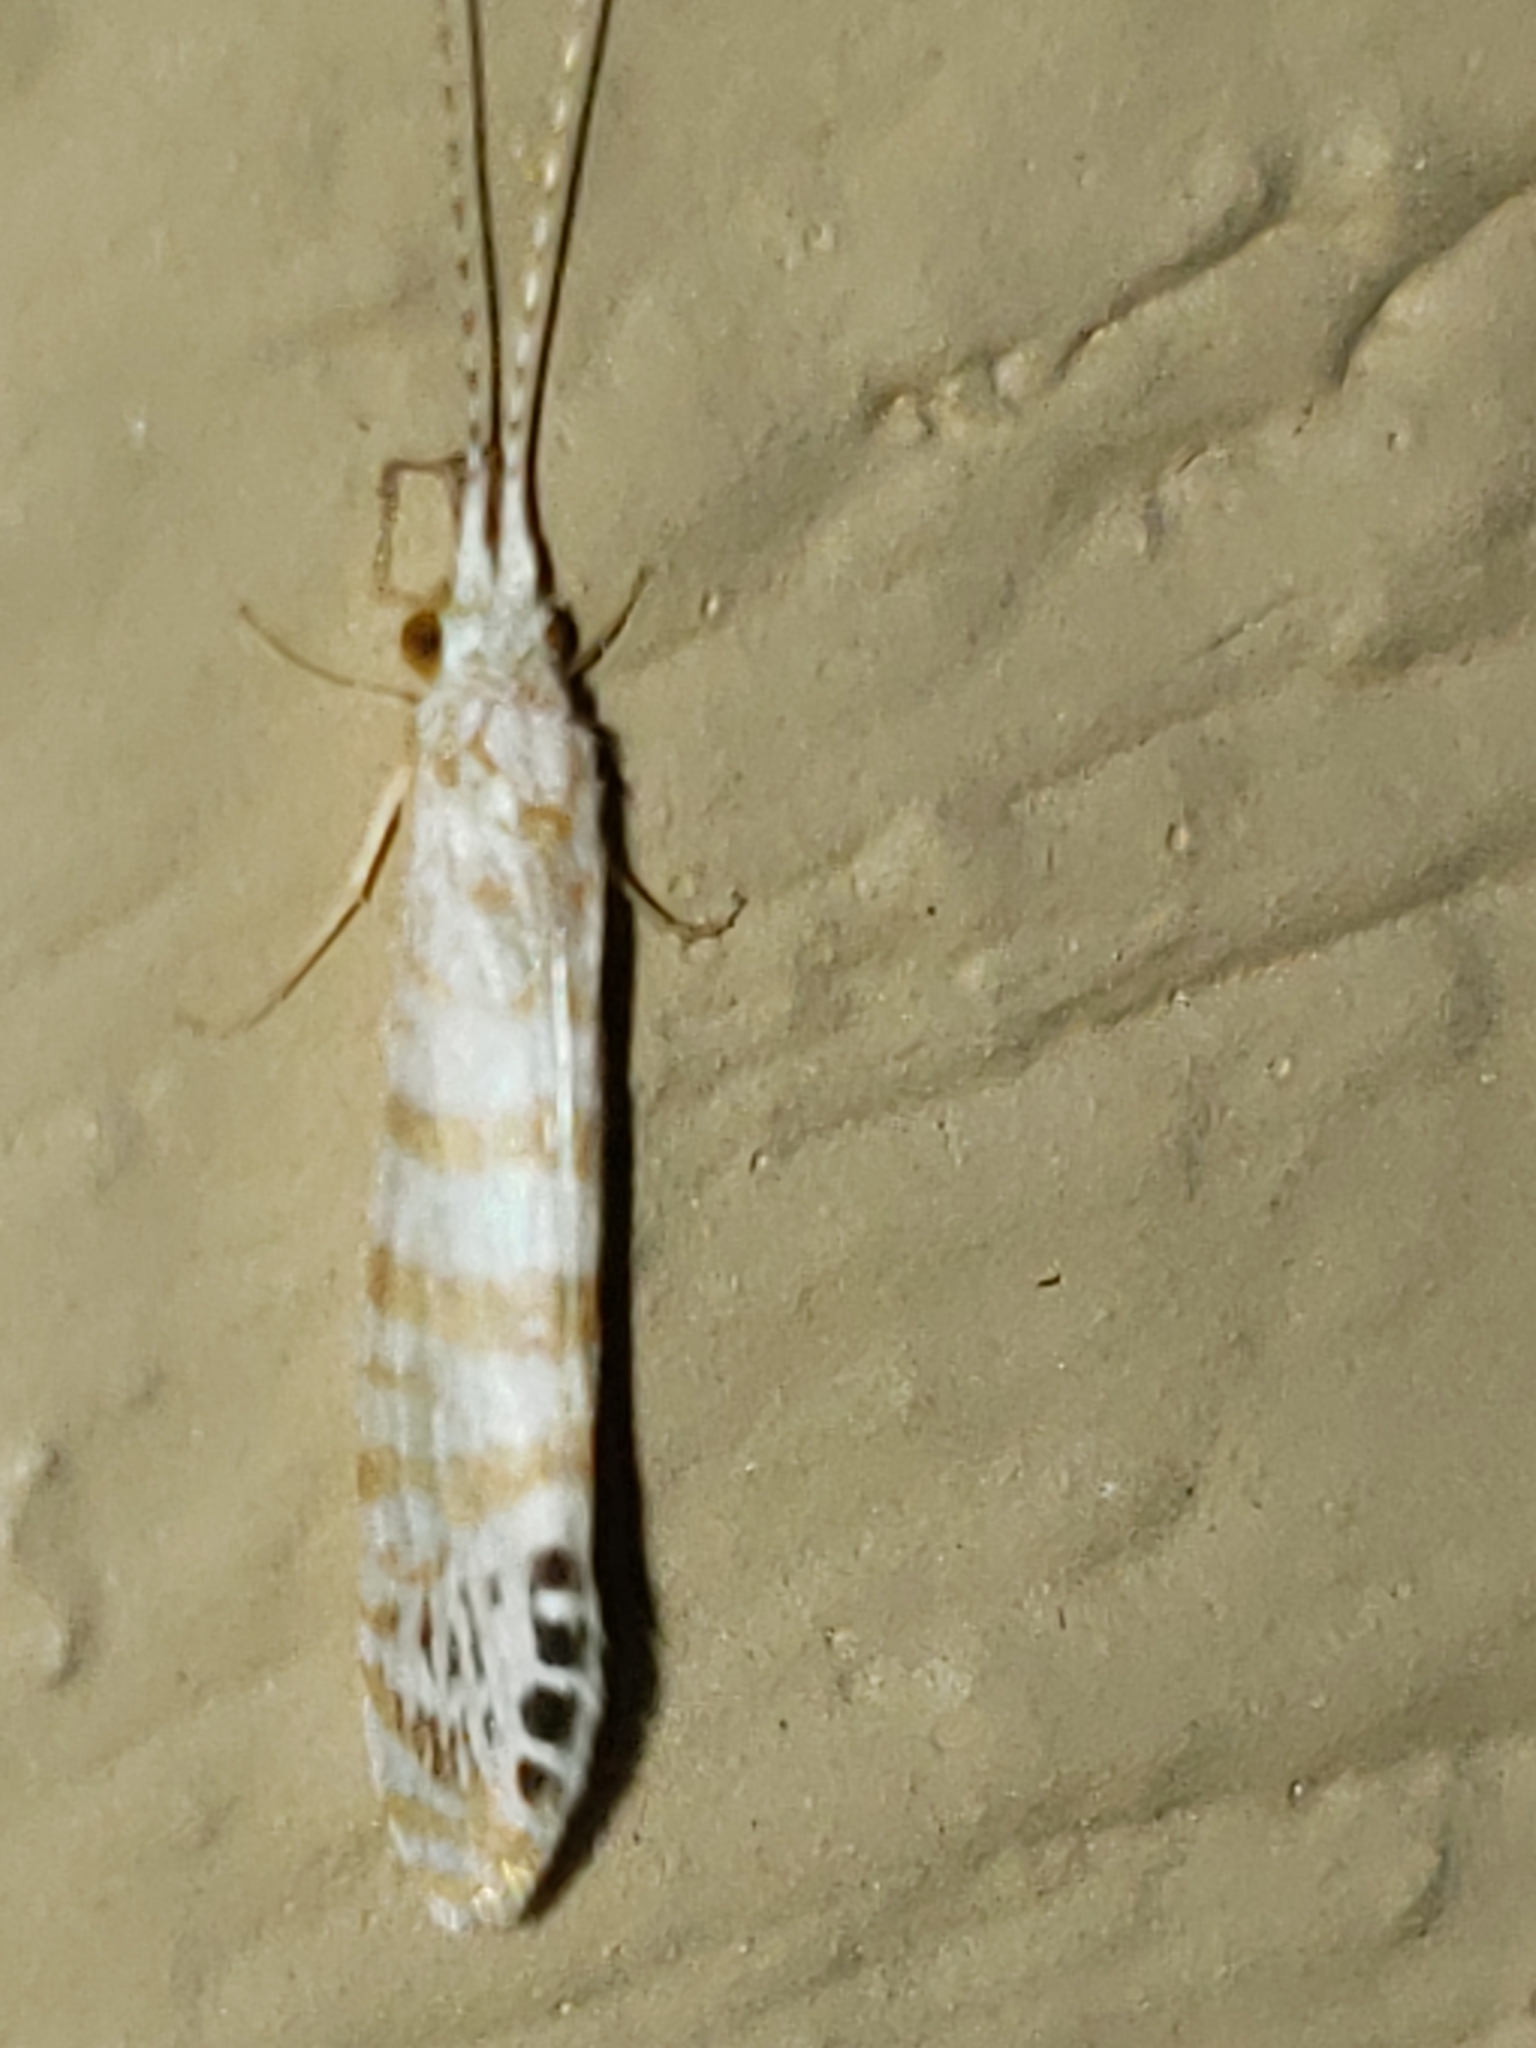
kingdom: Animalia
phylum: Arthropoda
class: Insecta
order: Trichoptera
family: Leptoceridae
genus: Nectopsyche
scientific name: Nectopsyche exquisita
